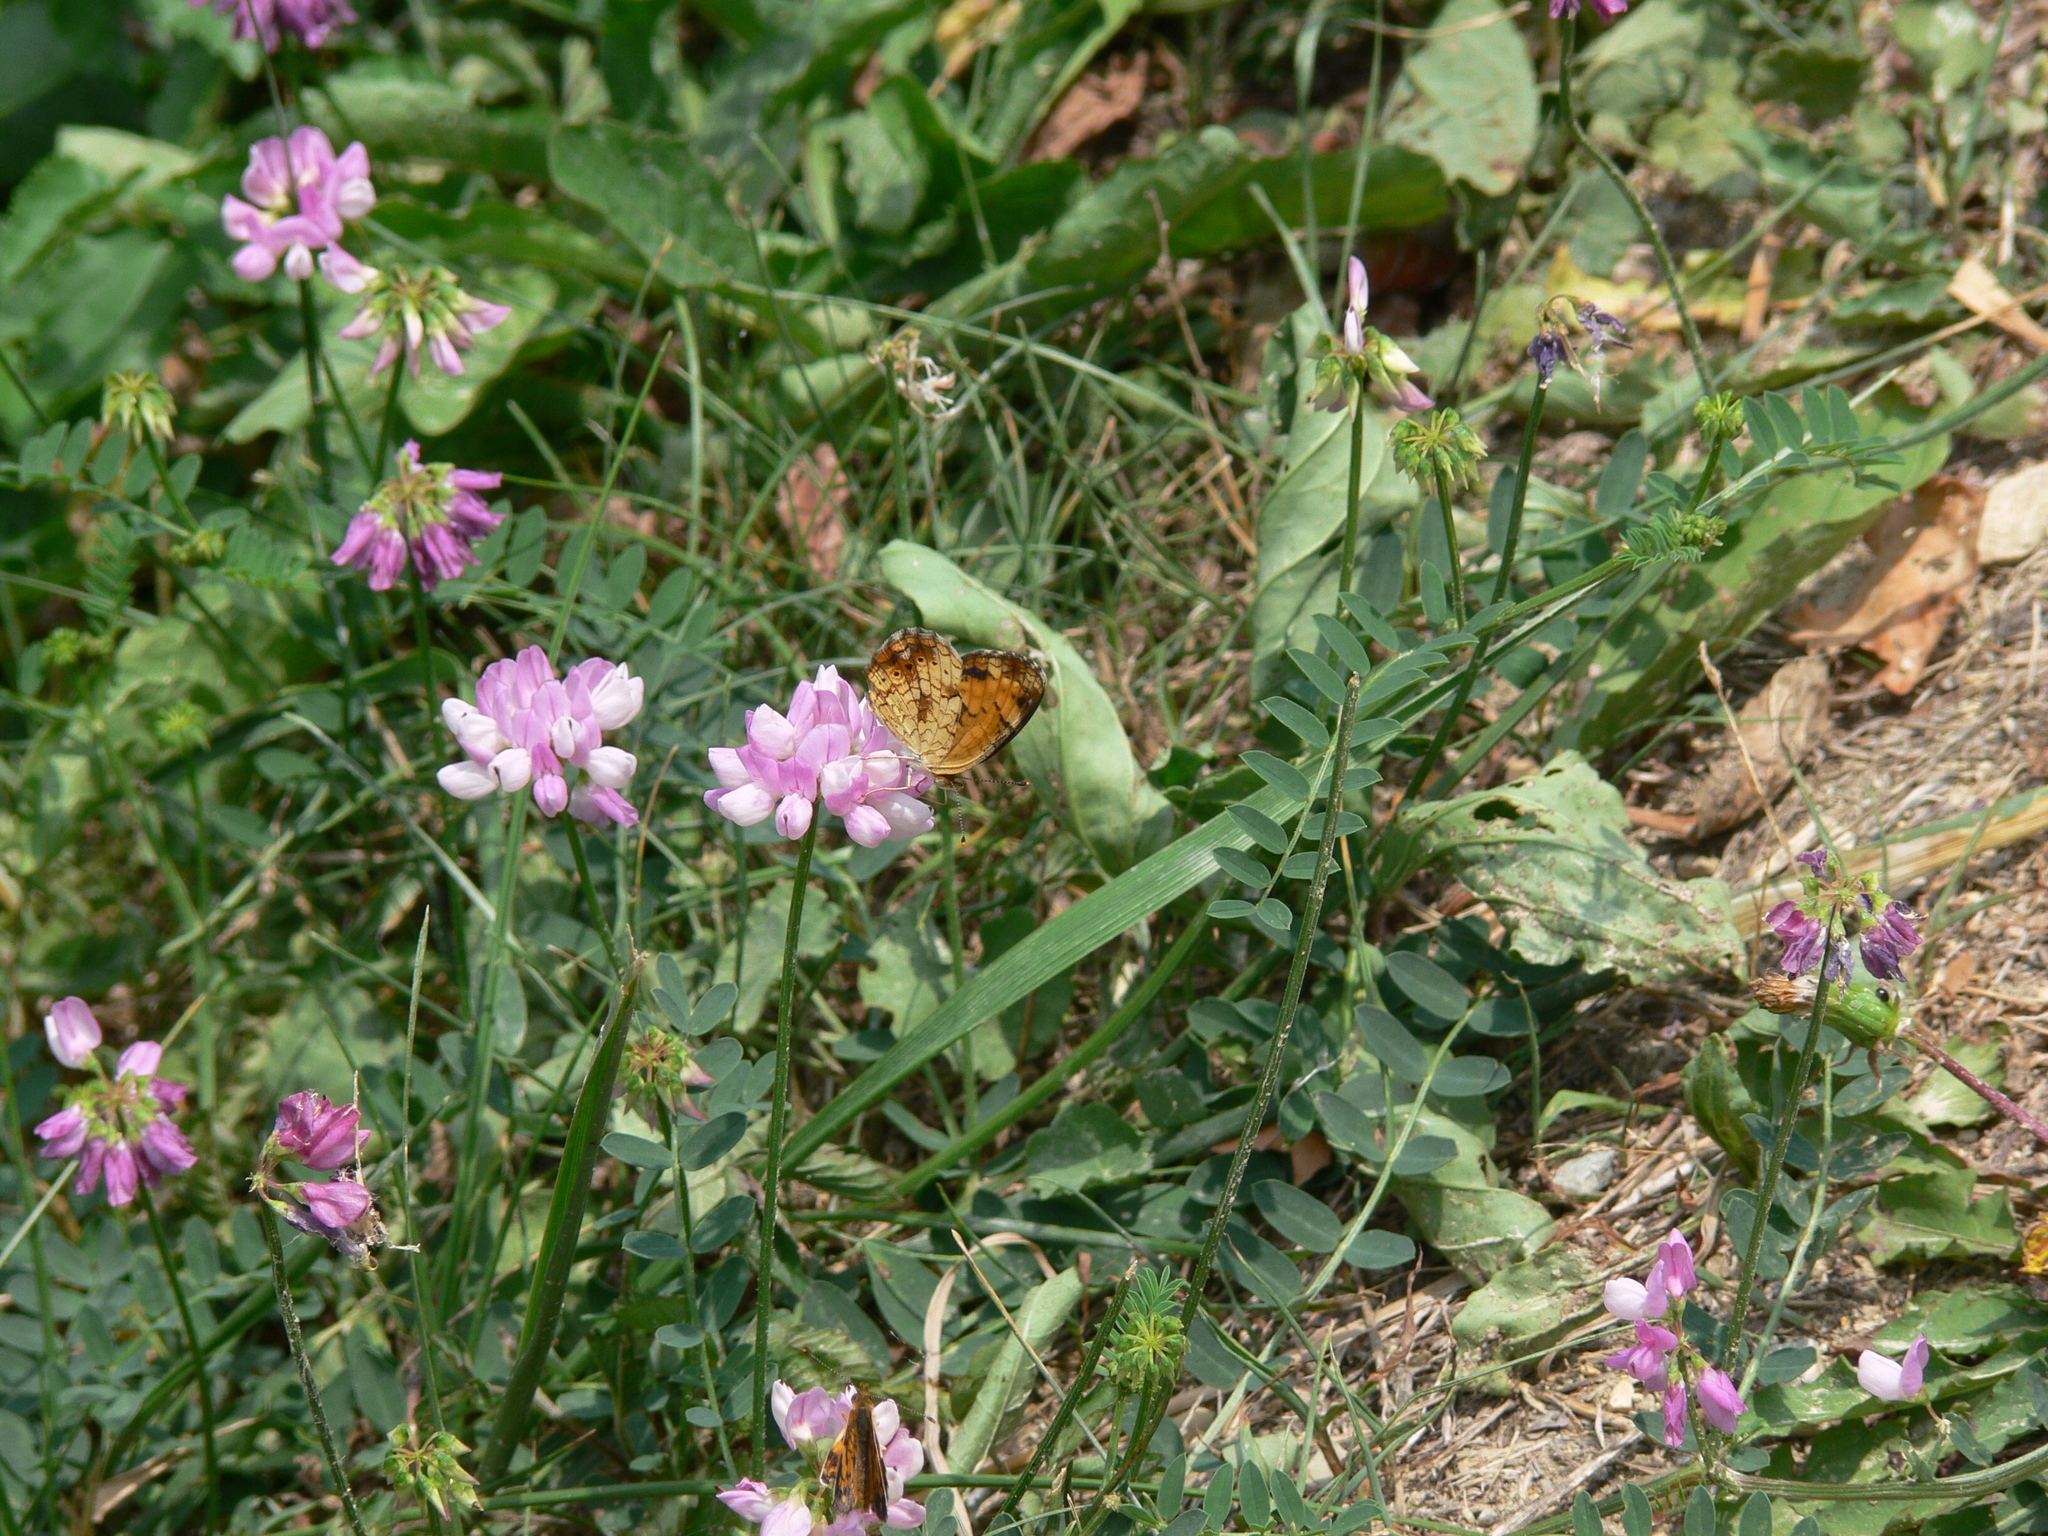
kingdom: Animalia
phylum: Arthropoda
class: Insecta
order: Lepidoptera
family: Nymphalidae
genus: Phyciodes
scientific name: Phyciodes tharos
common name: Pearl crescent
